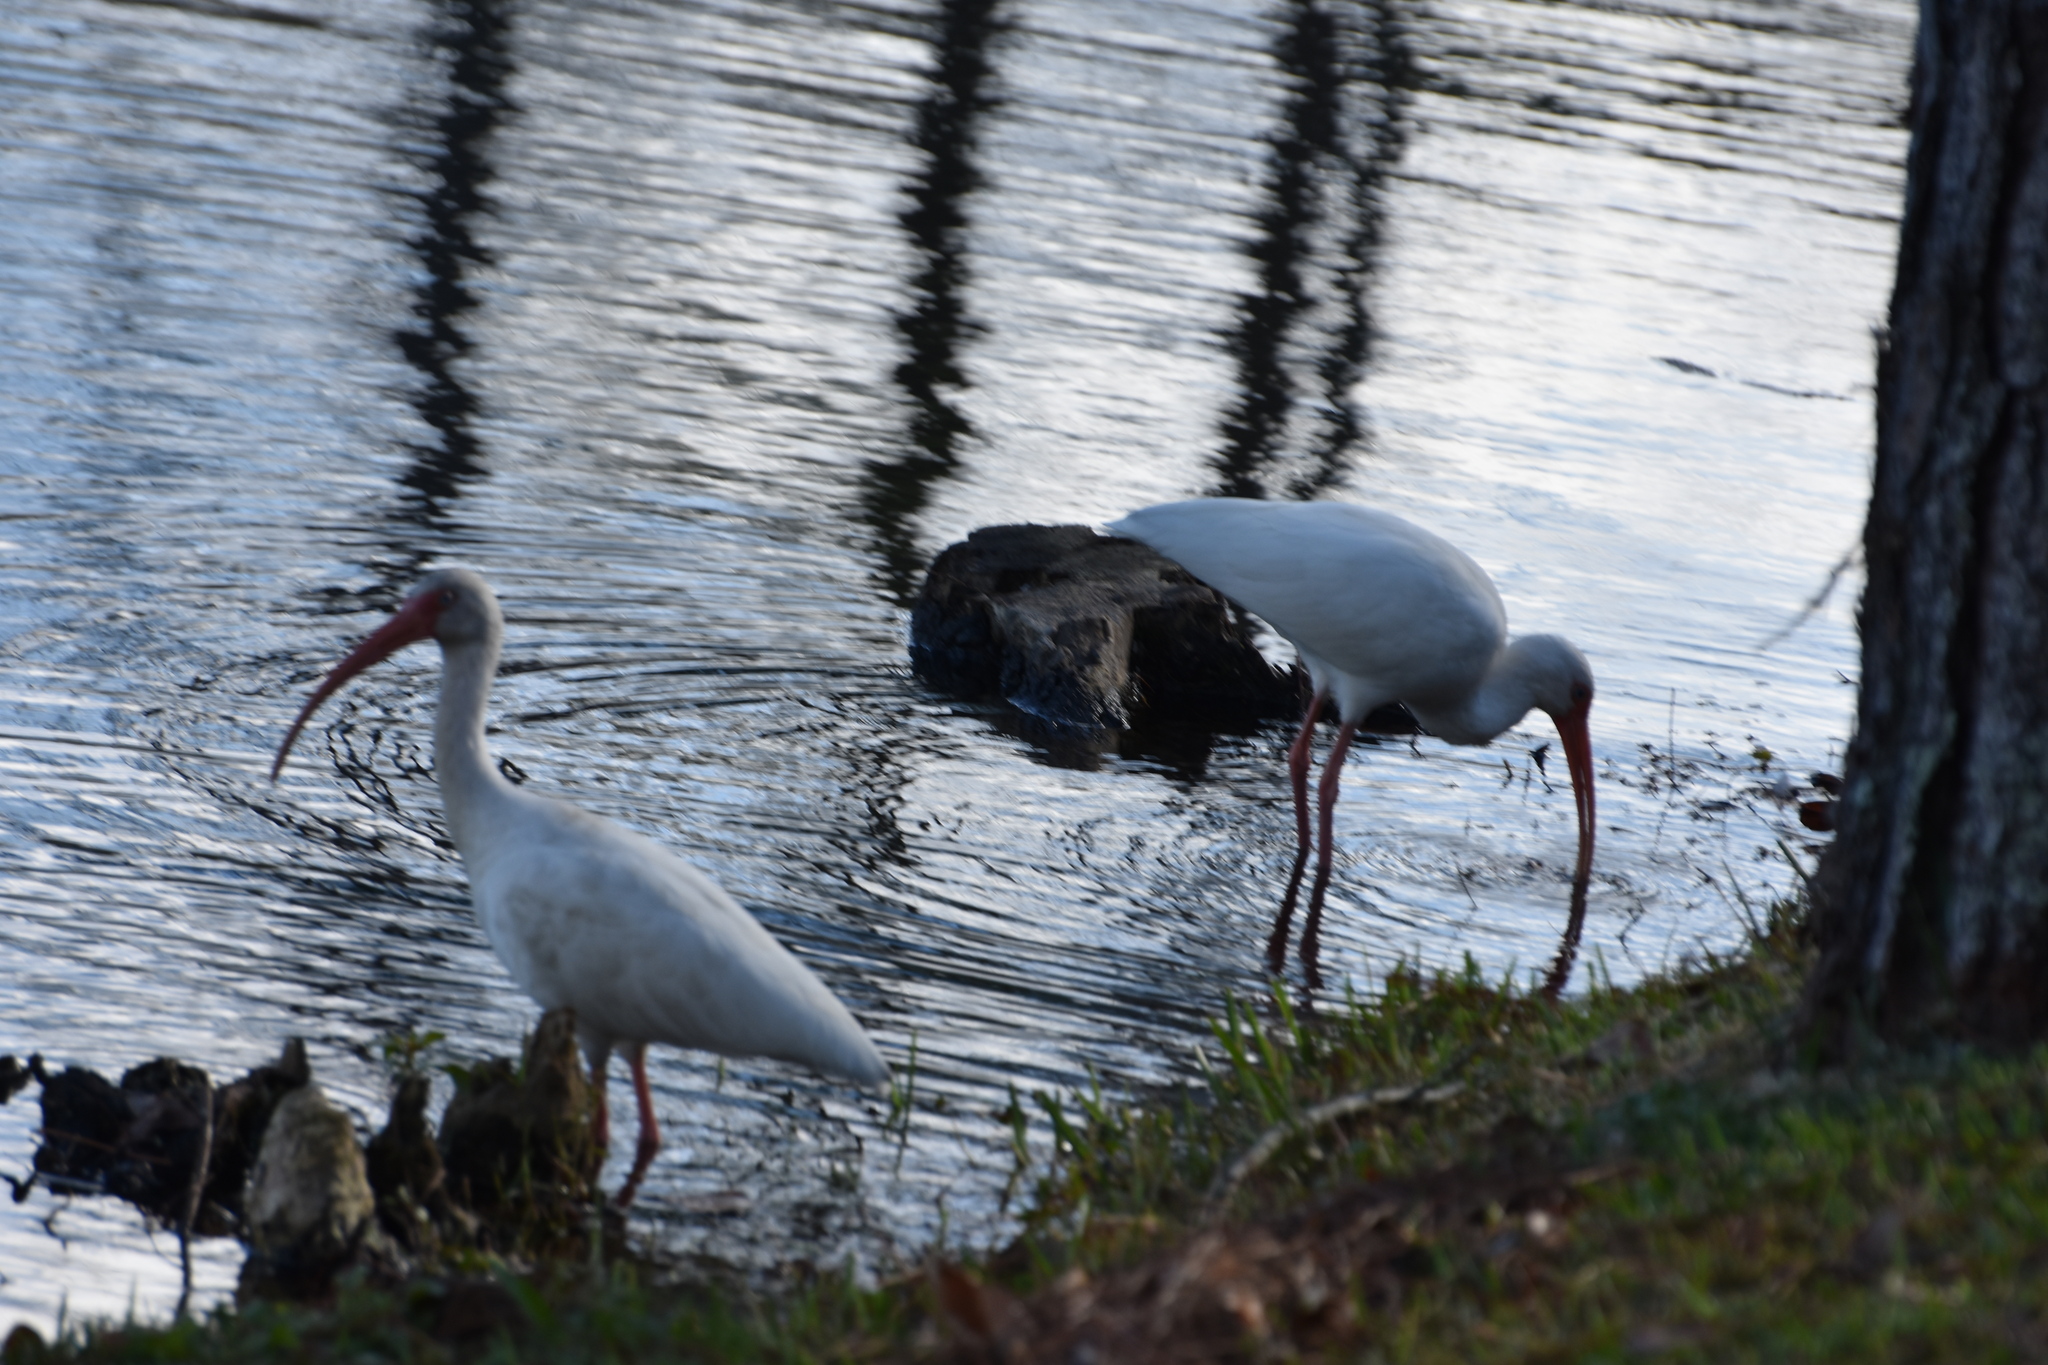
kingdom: Animalia
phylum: Chordata
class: Aves
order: Pelecaniformes
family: Threskiornithidae
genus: Eudocimus
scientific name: Eudocimus albus
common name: White ibis
